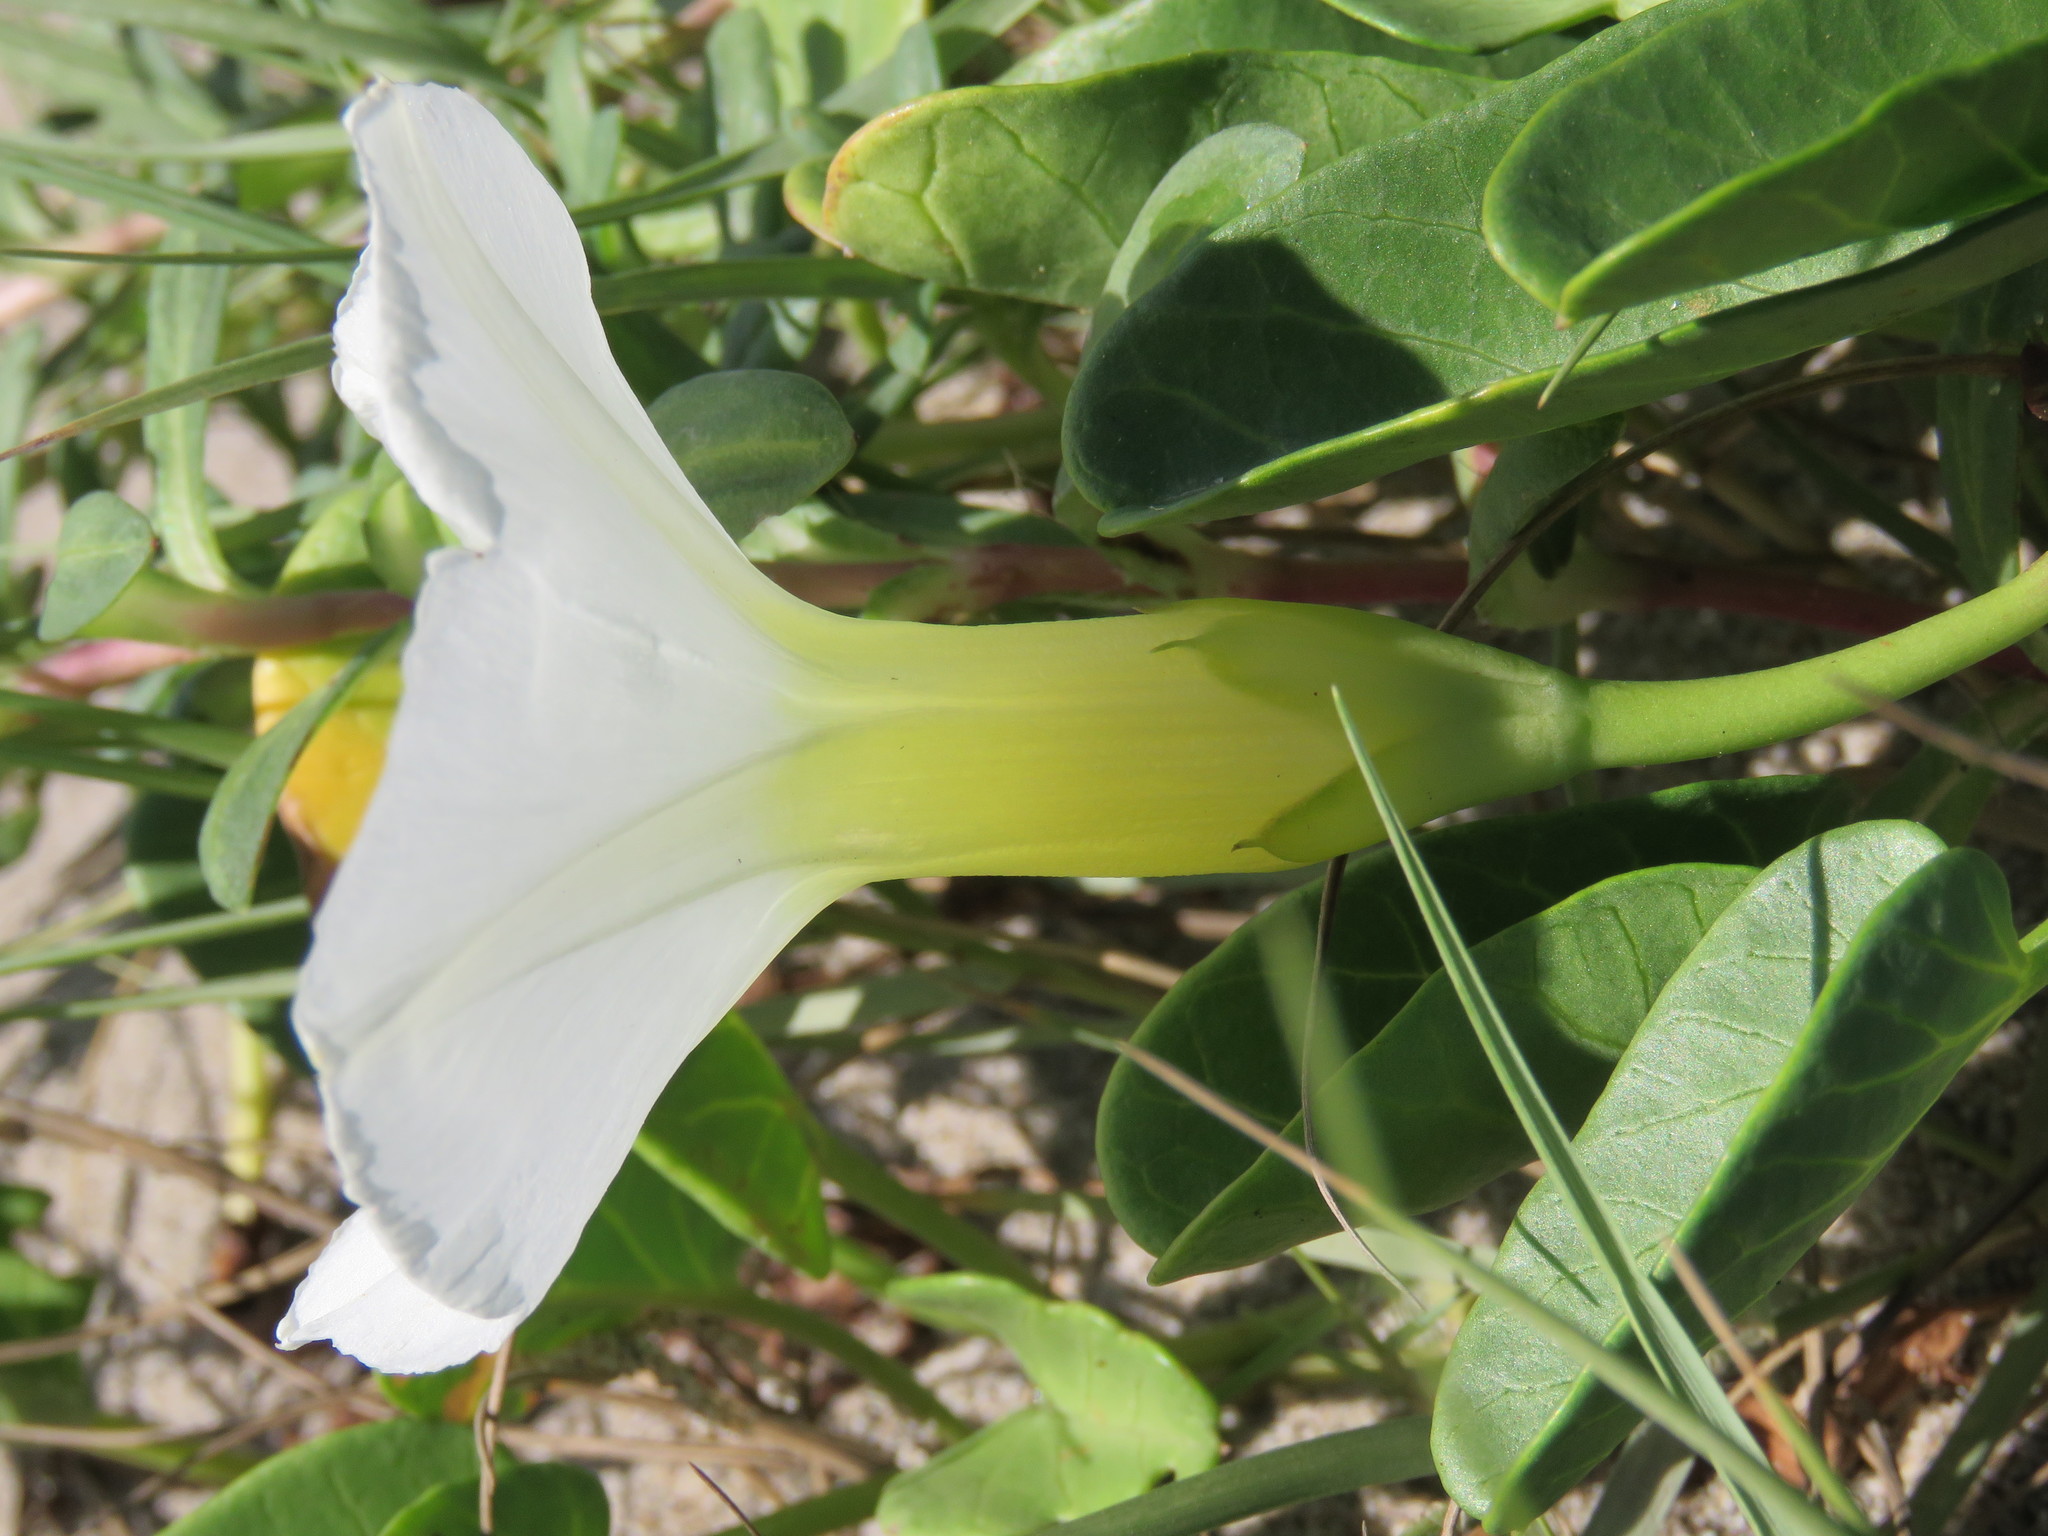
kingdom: Plantae
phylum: Tracheophyta
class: Magnoliopsida
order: Solanales
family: Convolvulaceae
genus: Ipomoea
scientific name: Ipomoea imperati
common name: Fiddle-leaf morning-glory
